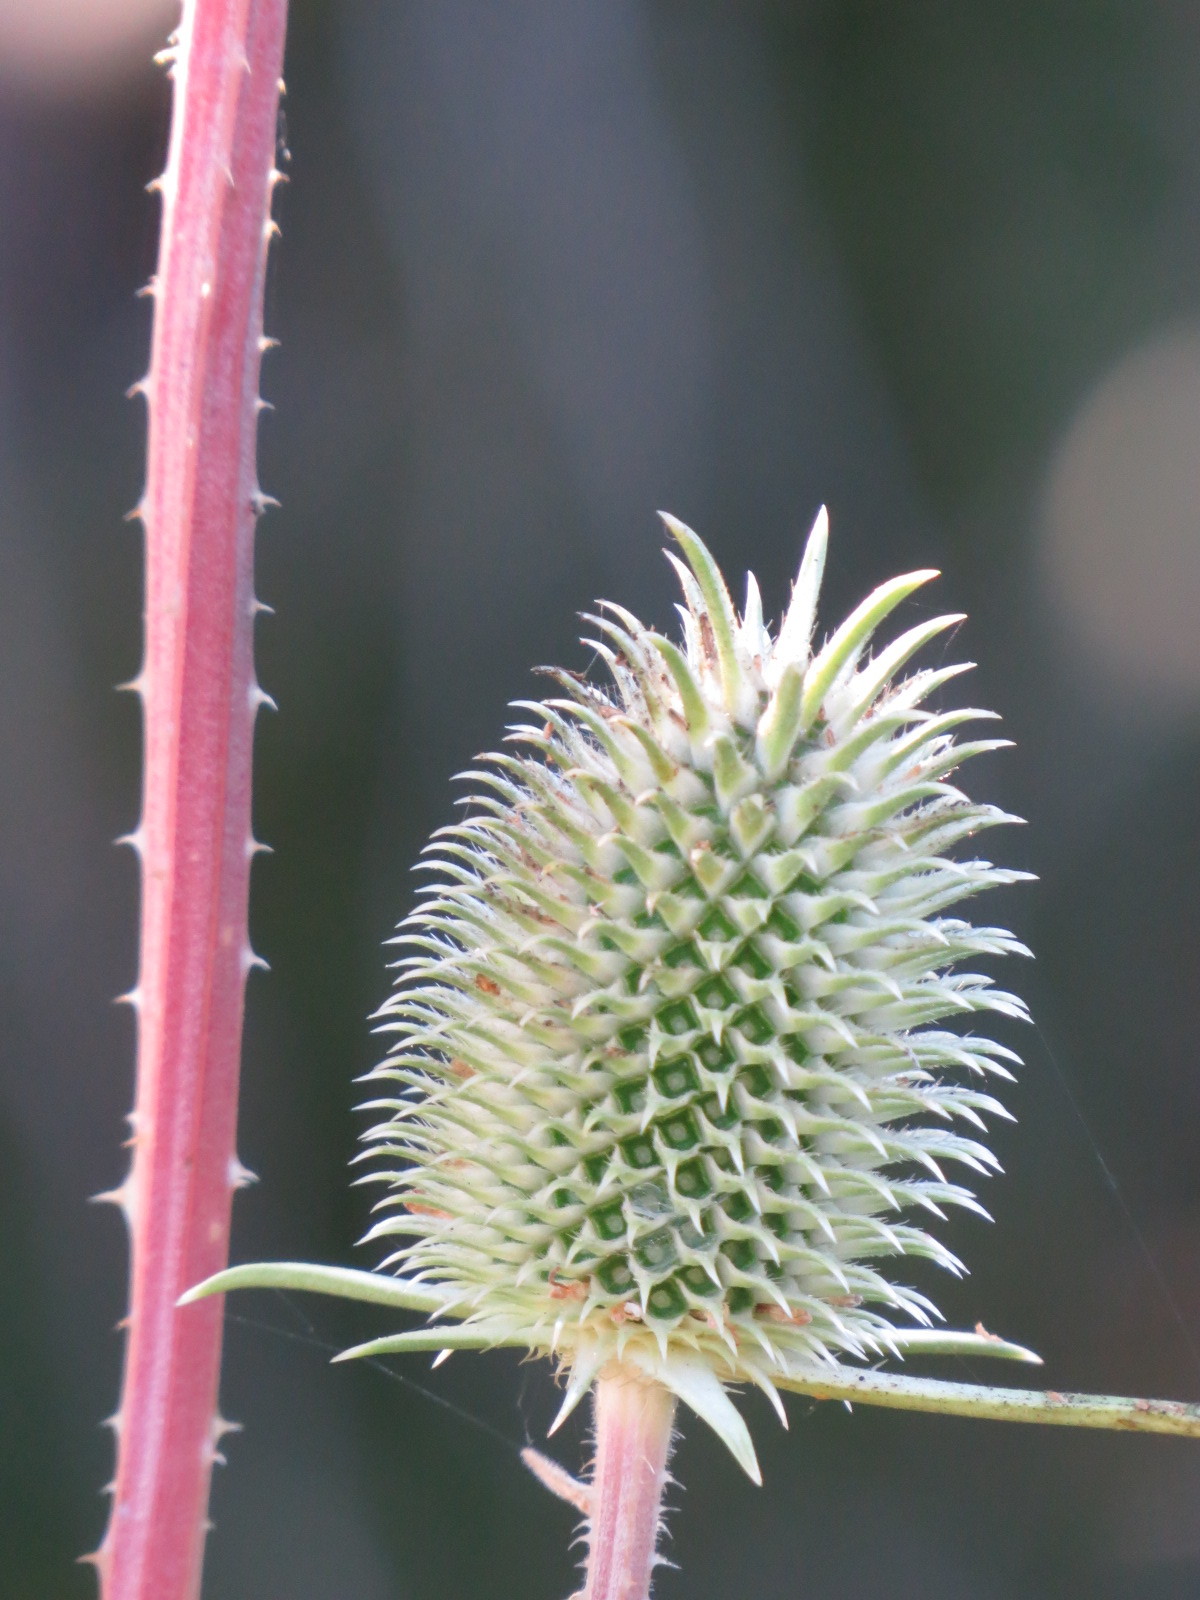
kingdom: Plantae
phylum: Tracheophyta
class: Magnoliopsida
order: Dipsacales
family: Caprifoliaceae
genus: Dipsacus
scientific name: Dipsacus sativus
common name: Fuller's teasel
